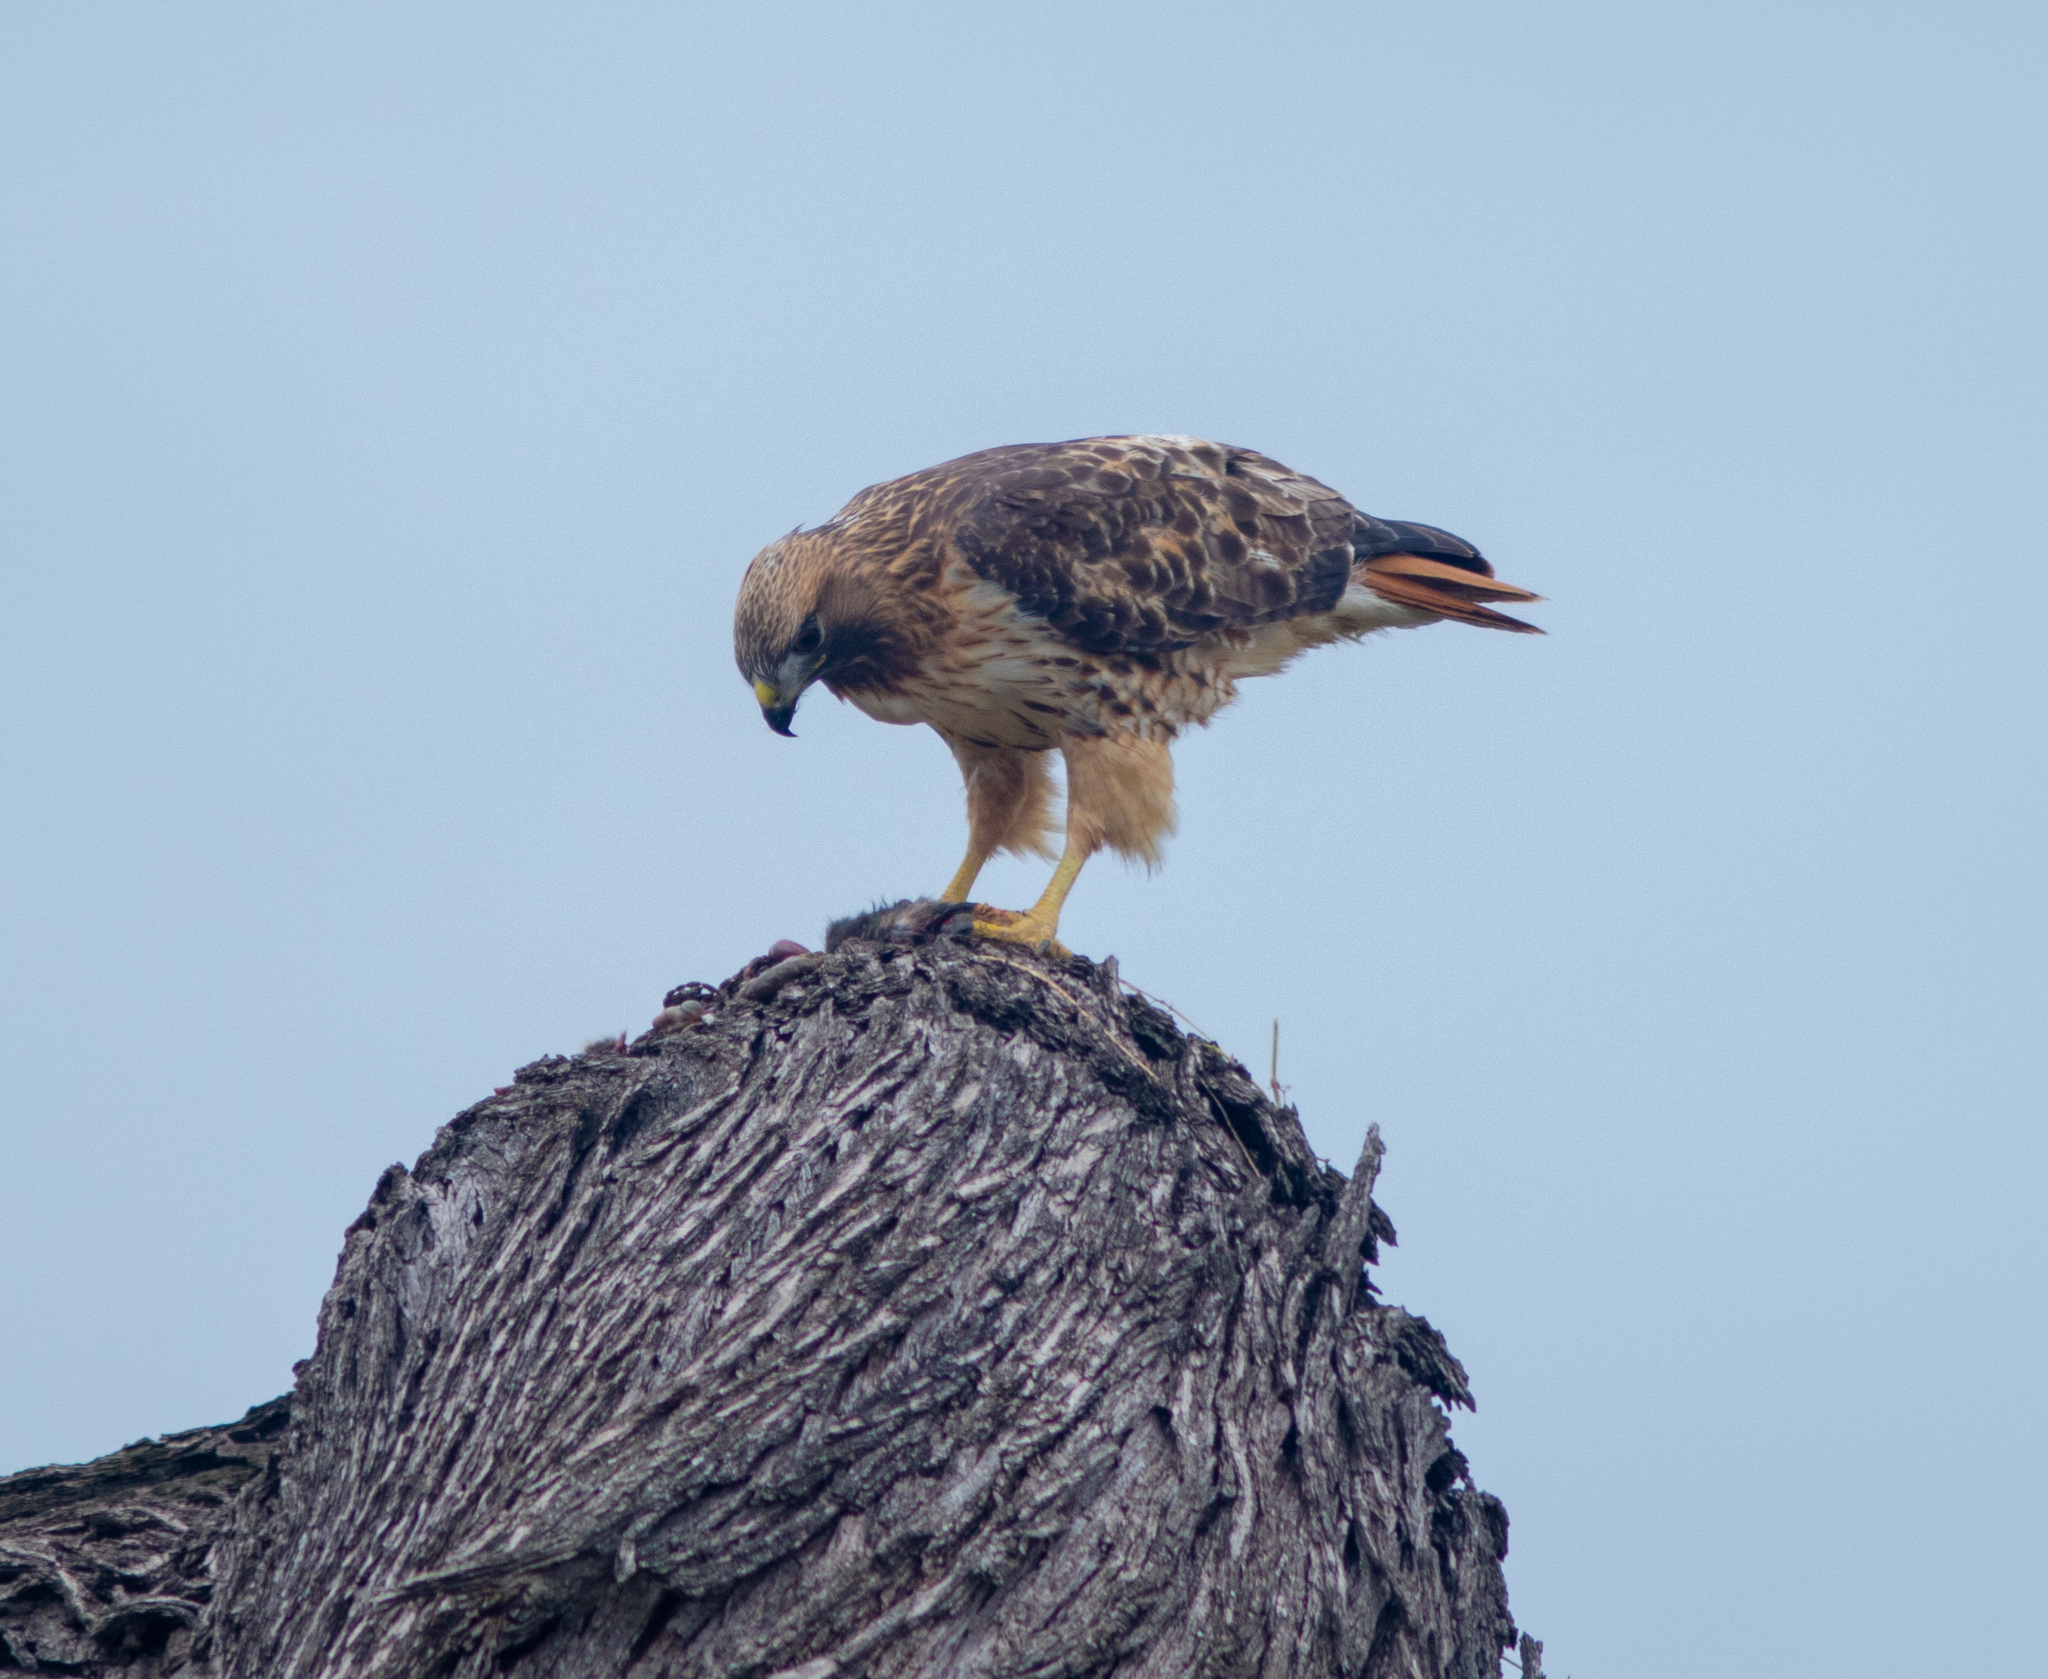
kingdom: Animalia
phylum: Chordata
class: Aves
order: Accipitriformes
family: Accipitridae
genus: Buteo
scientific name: Buteo jamaicensis
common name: Red-tailed hawk
